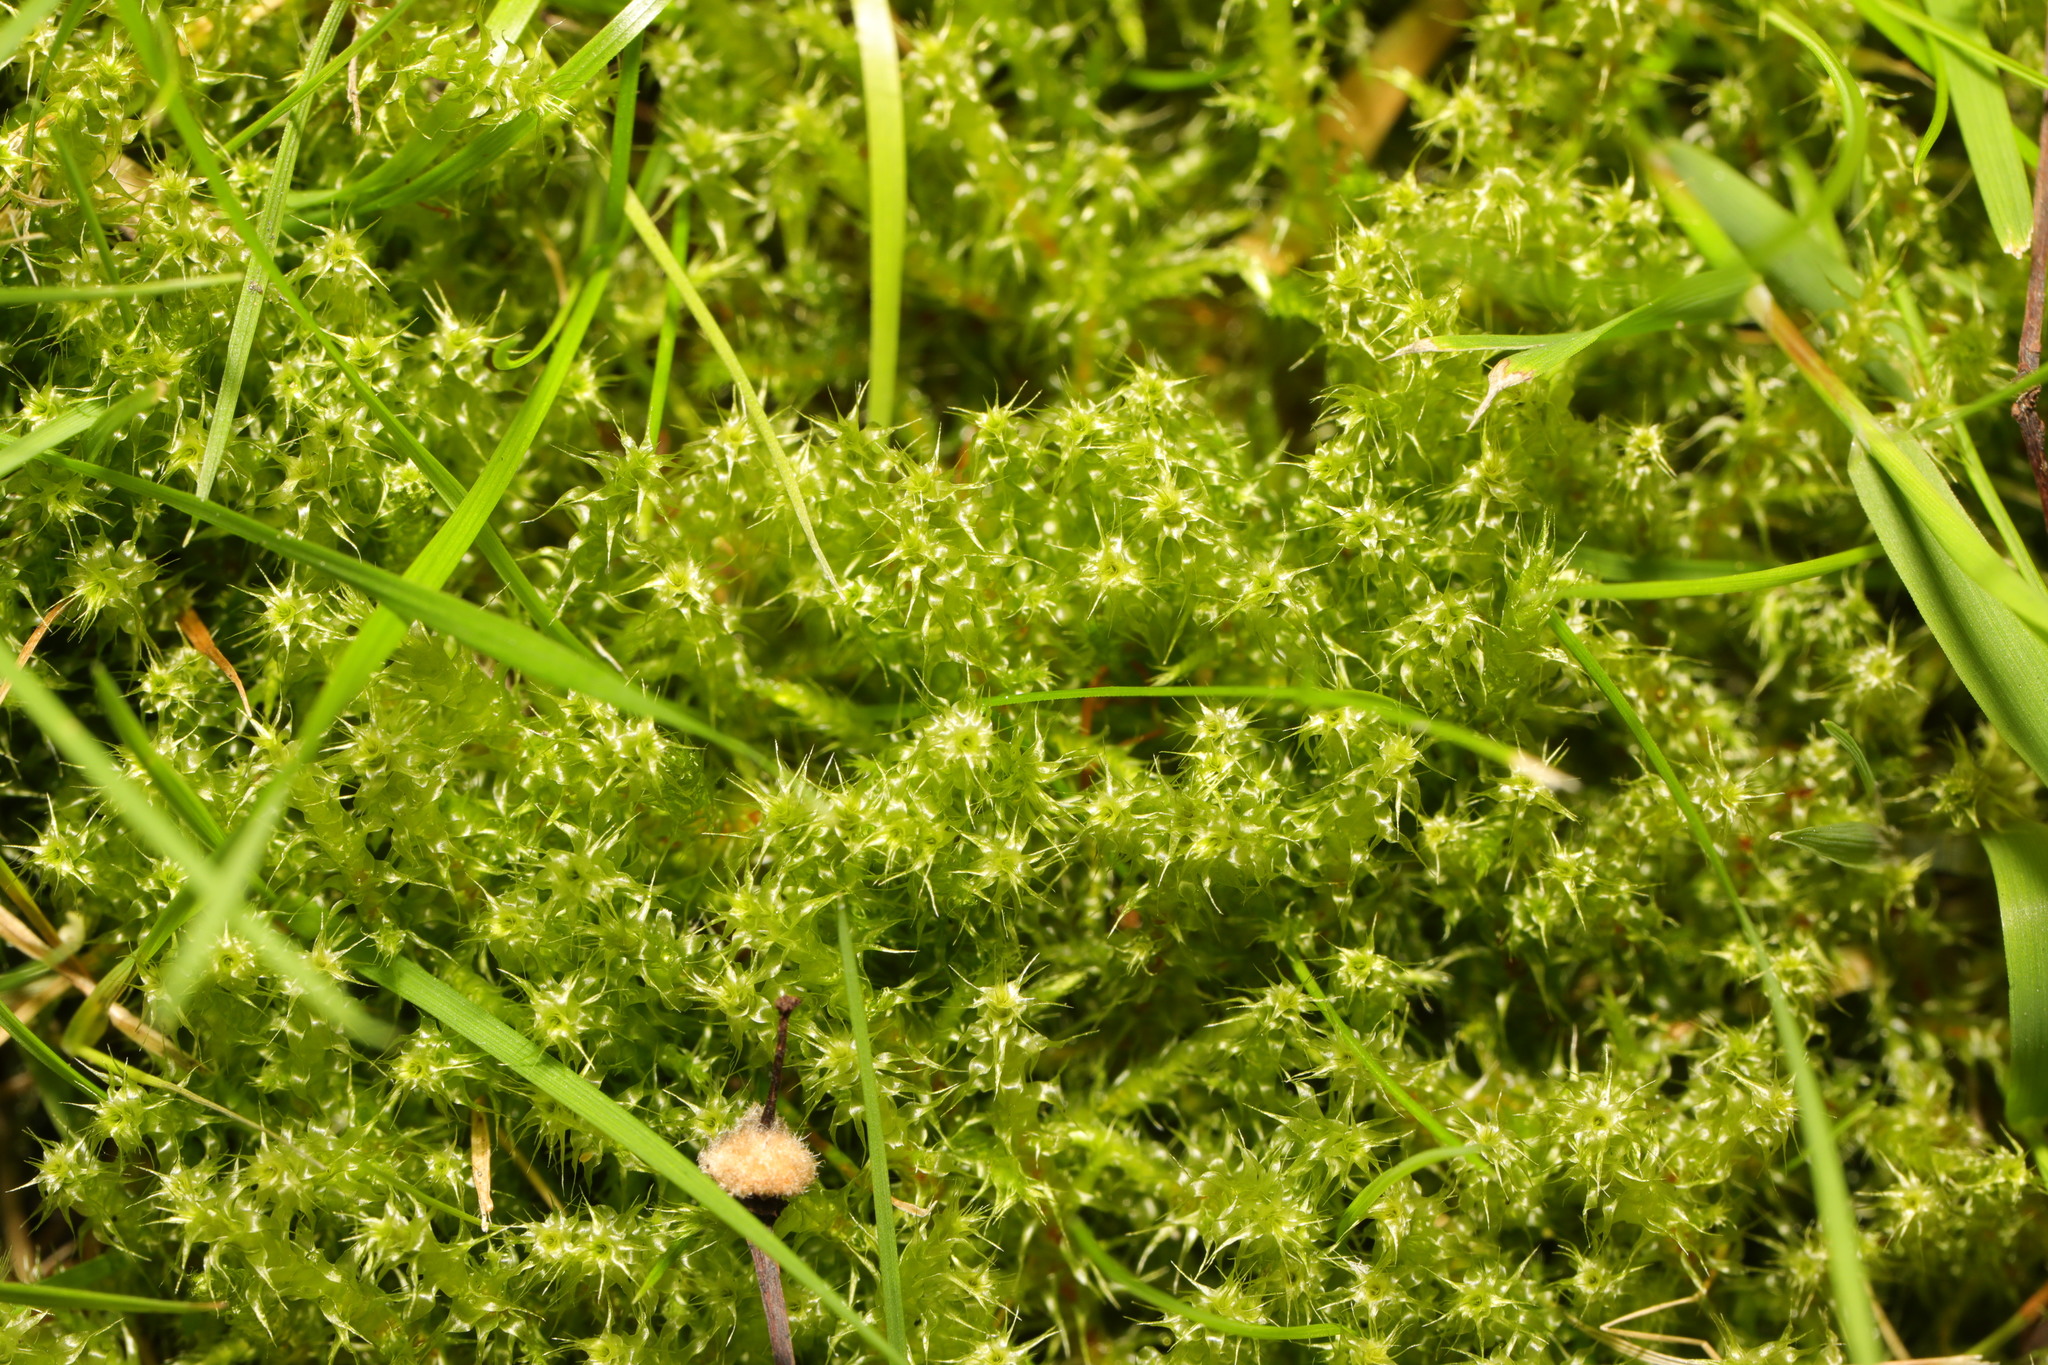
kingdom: Plantae
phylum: Bryophyta
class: Bryopsida
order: Hypnales
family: Hylocomiaceae
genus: Rhytidiadelphus
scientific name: Rhytidiadelphus squarrosus
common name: Springy turf-moss
